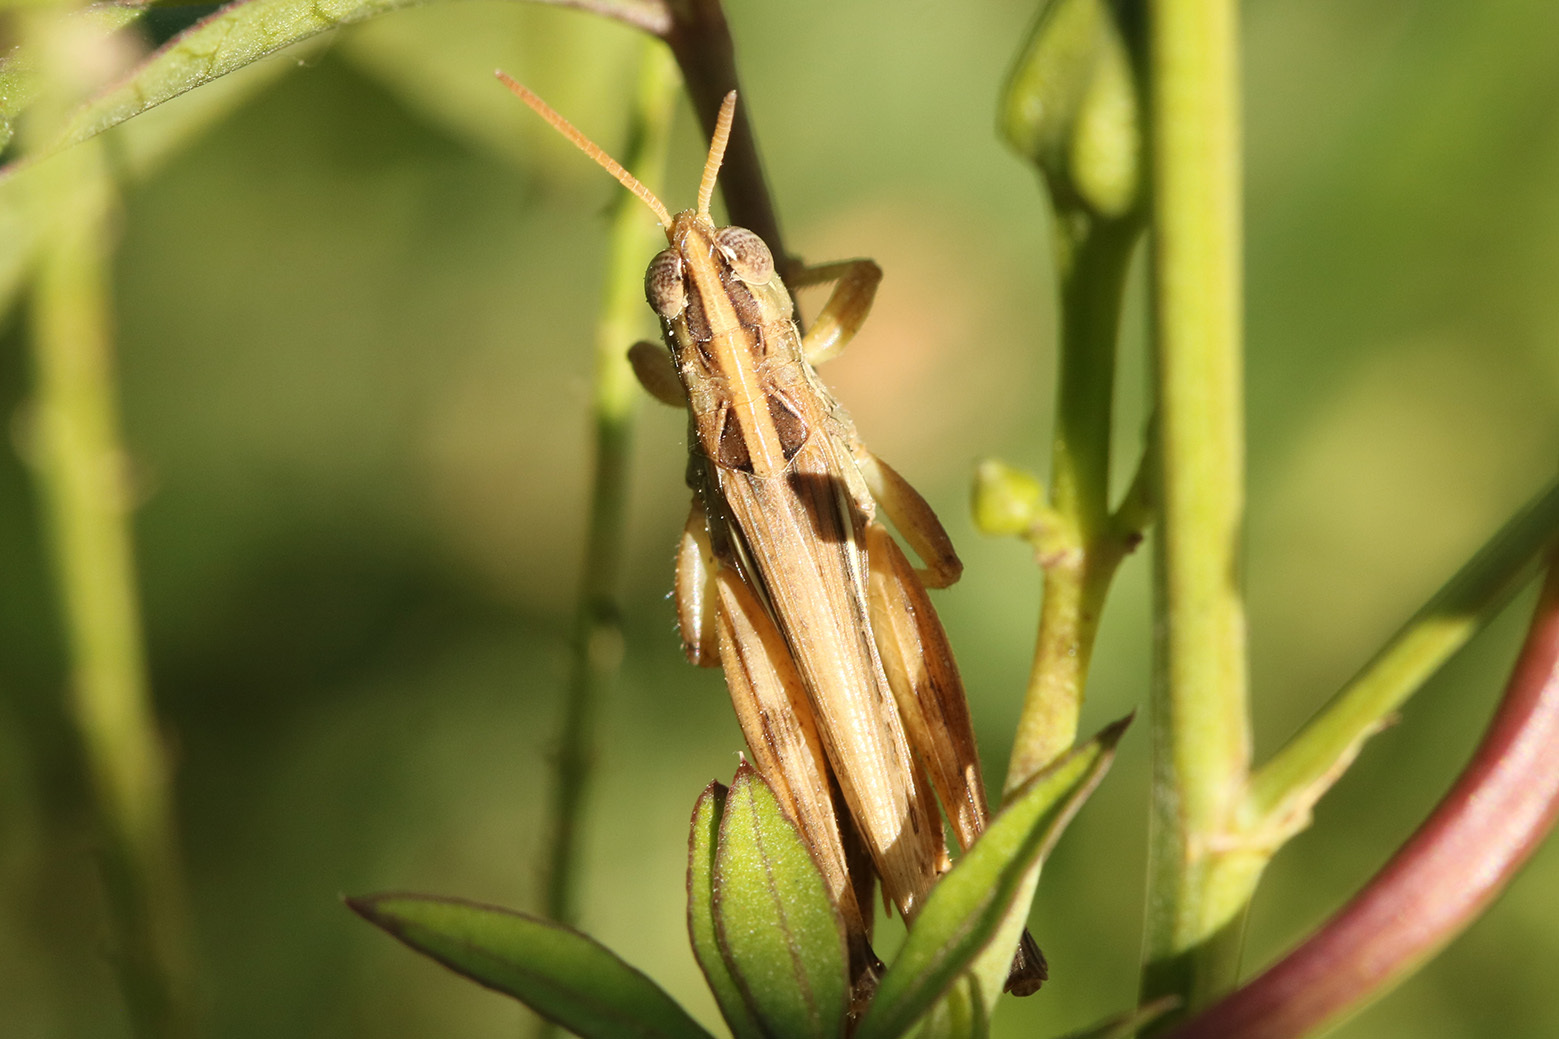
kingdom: Animalia
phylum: Arthropoda
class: Insecta
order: Orthoptera
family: Acrididae
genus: Borellia
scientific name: Borellia bruneri
